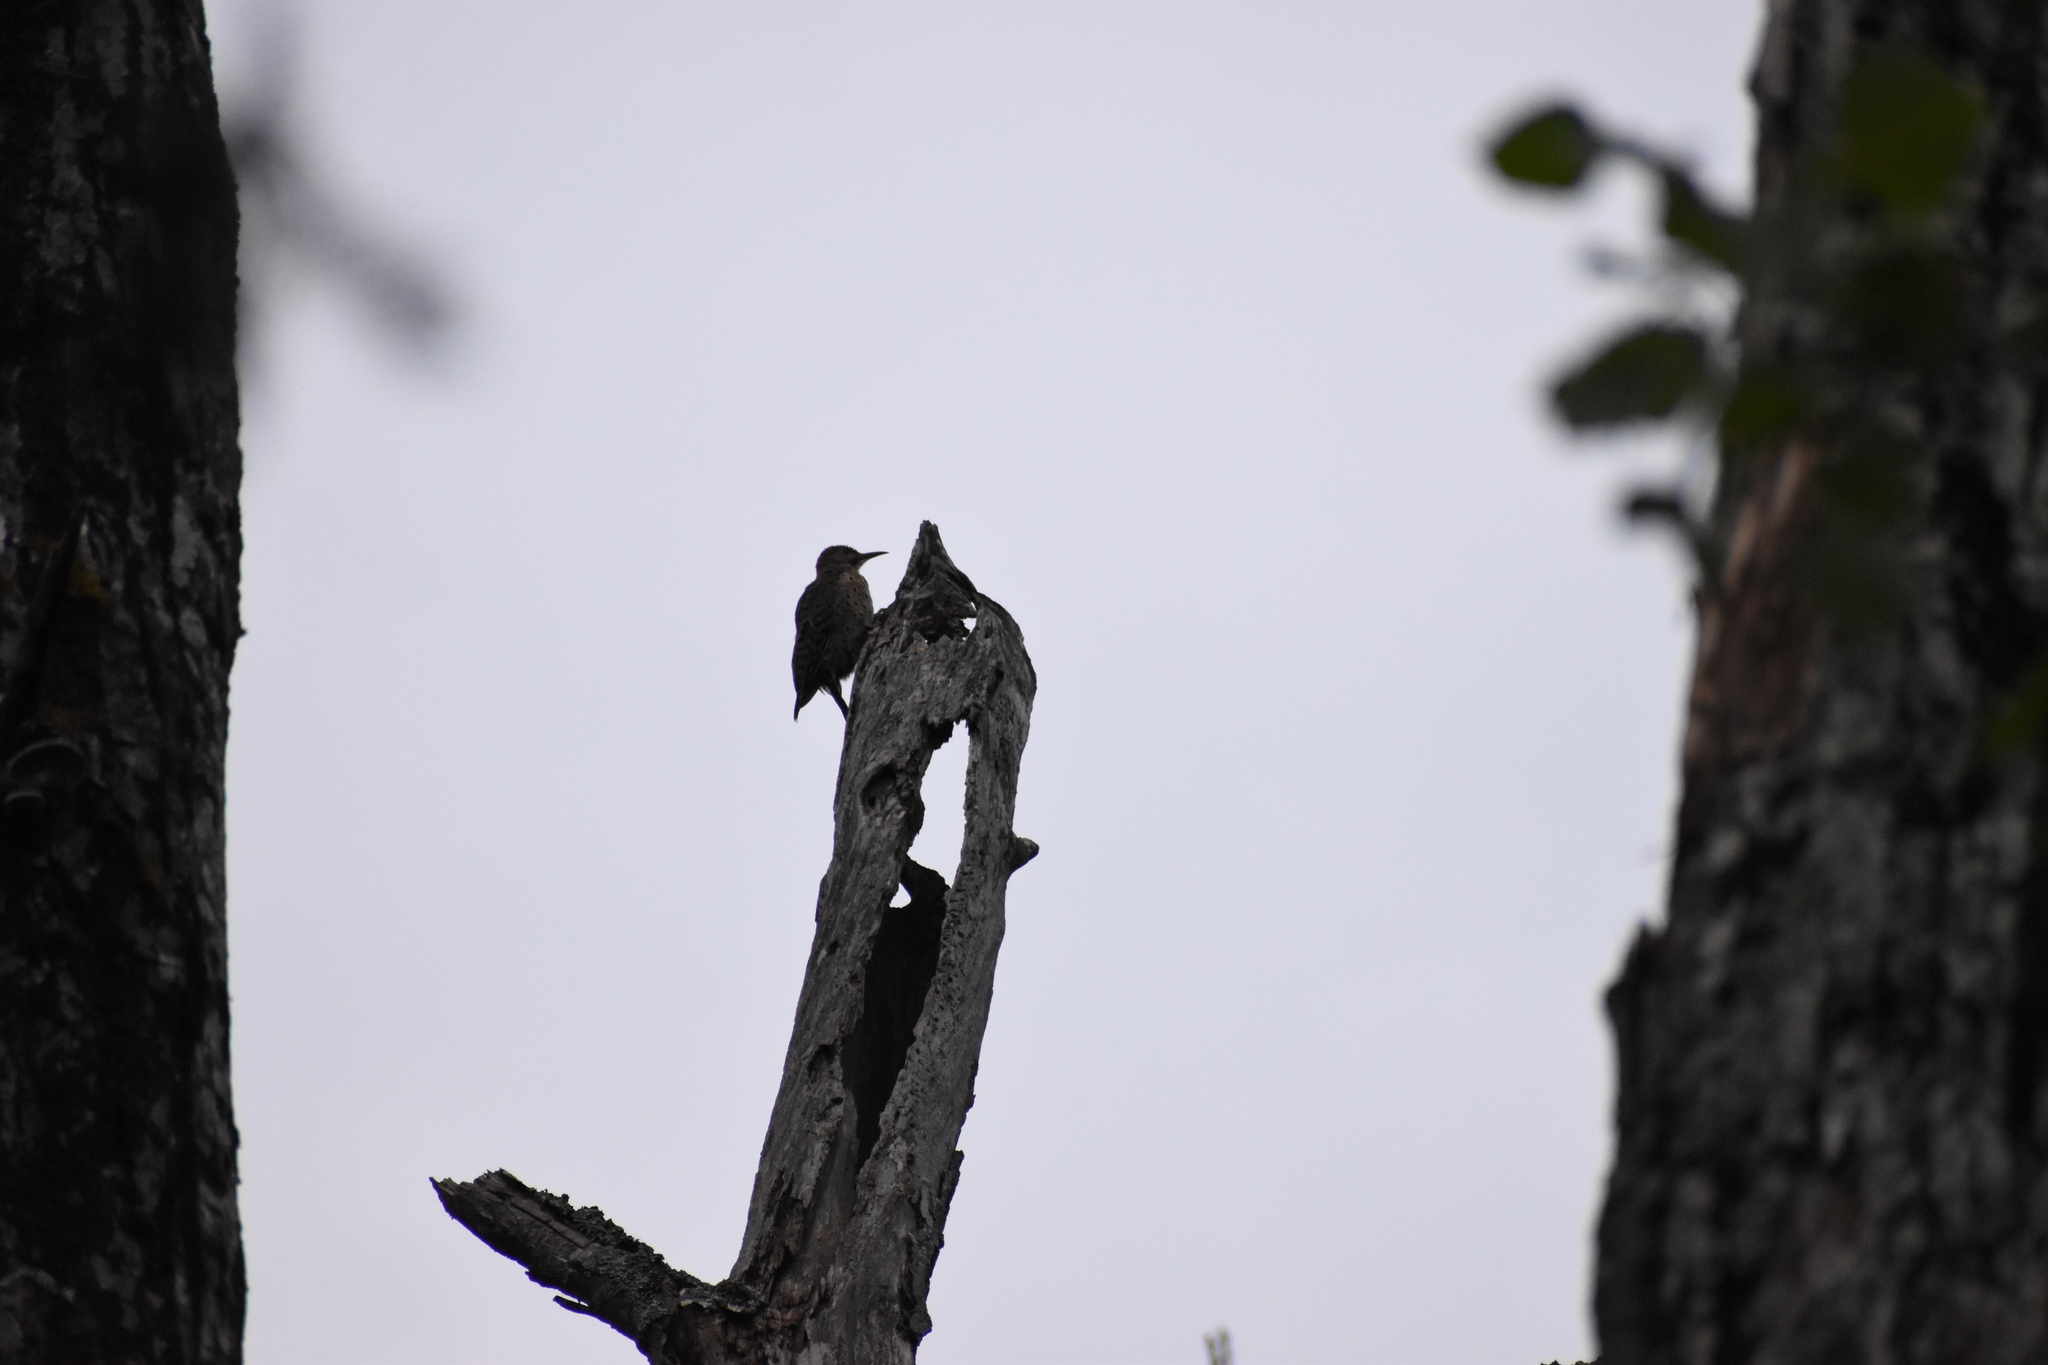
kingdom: Animalia
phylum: Chordata
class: Aves
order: Piciformes
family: Picidae
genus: Colaptes
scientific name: Colaptes auratus
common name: Northern flicker
